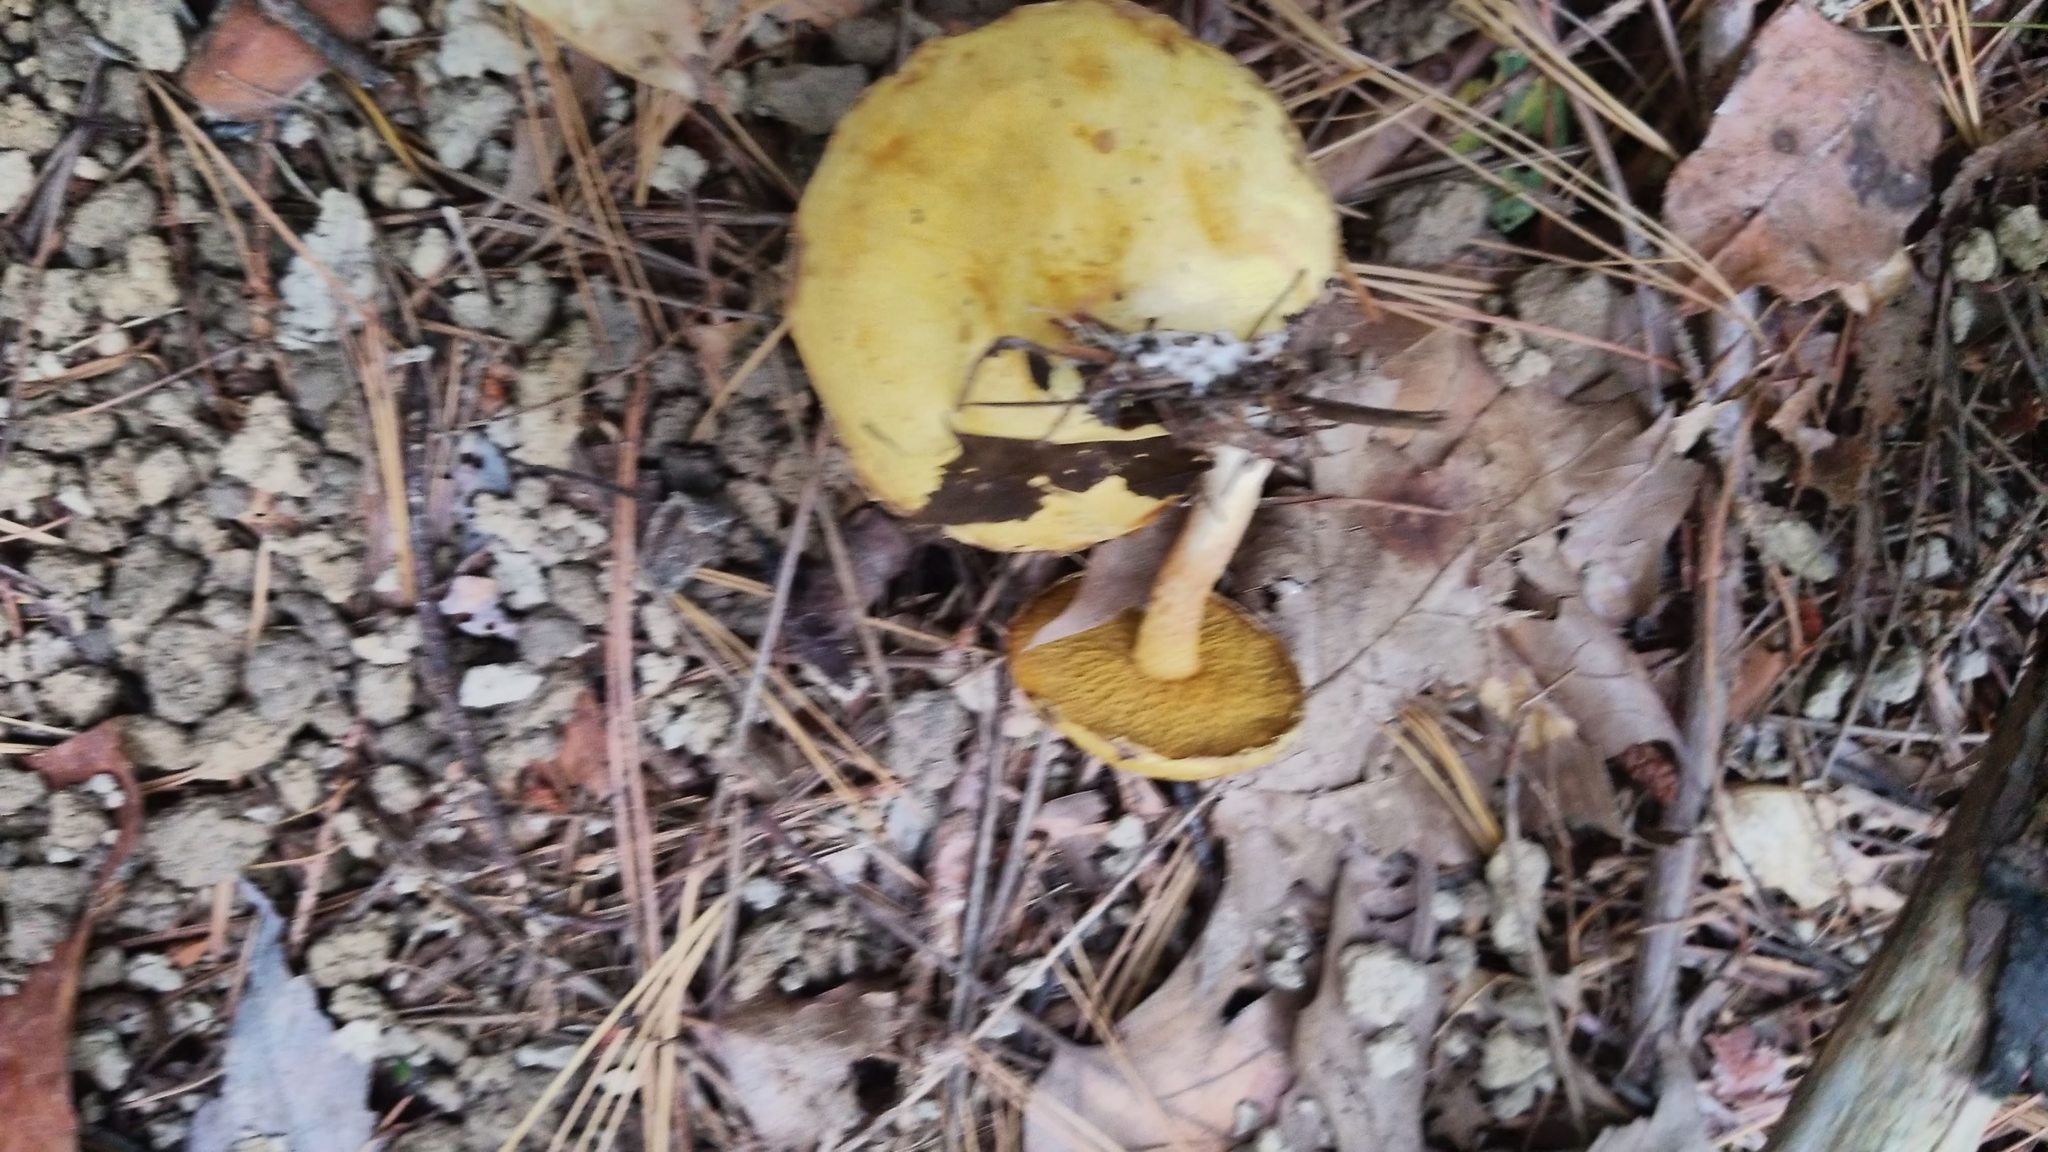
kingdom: Fungi
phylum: Basidiomycota
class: Agaricomycetes
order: Boletales
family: Suillaceae
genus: Suillus
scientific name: Suillus americanus
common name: Chicken fat mushroom
